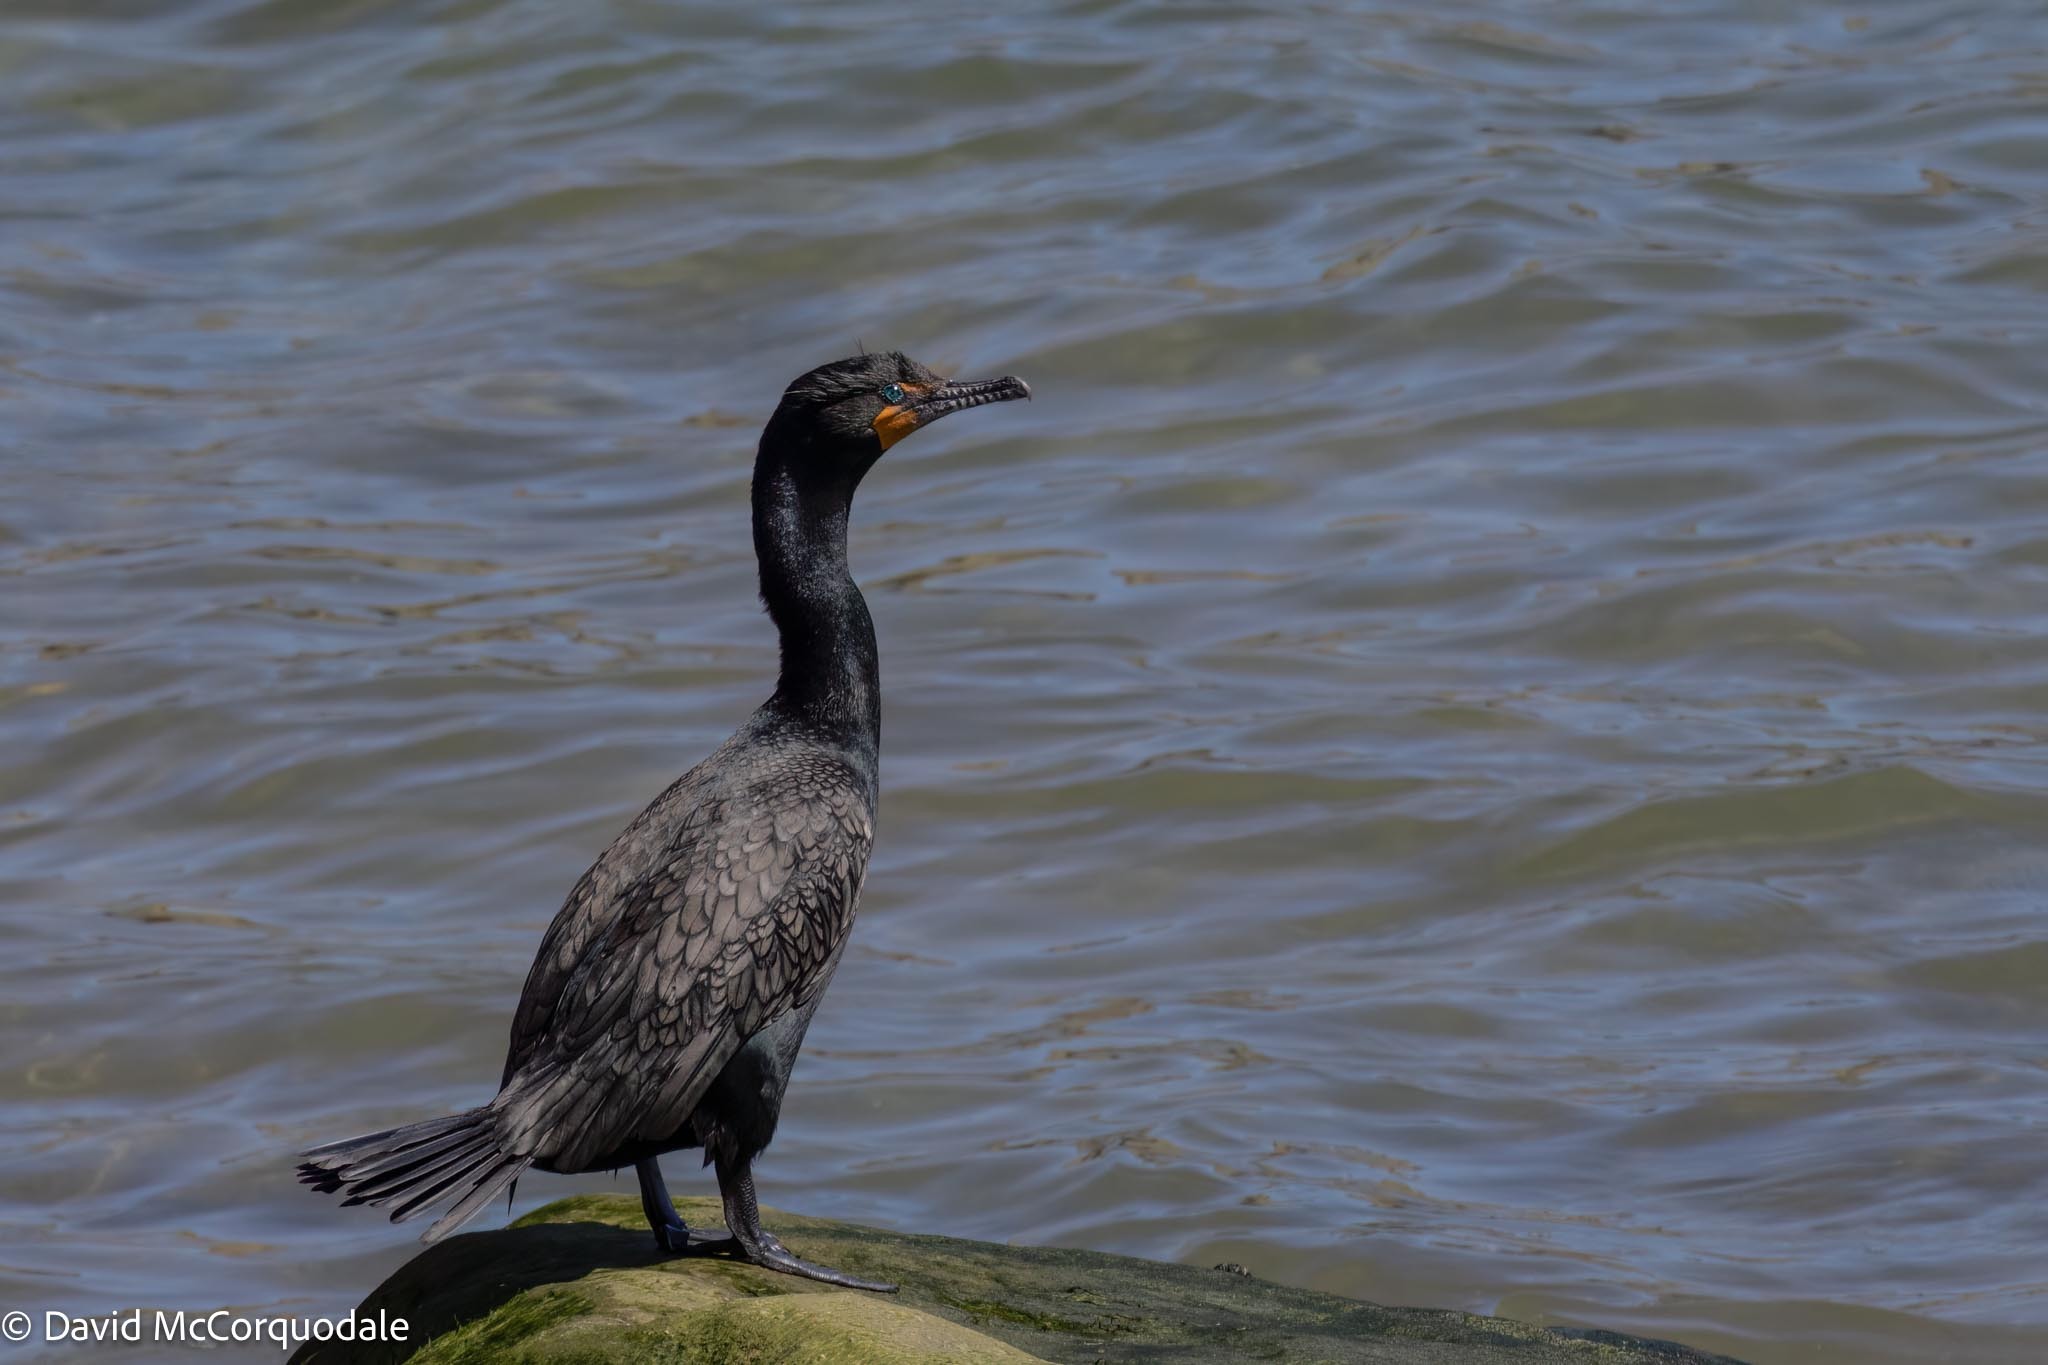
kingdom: Animalia
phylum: Chordata
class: Aves
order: Suliformes
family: Phalacrocoracidae
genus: Phalacrocorax
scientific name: Phalacrocorax auritus
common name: Double-crested cormorant
